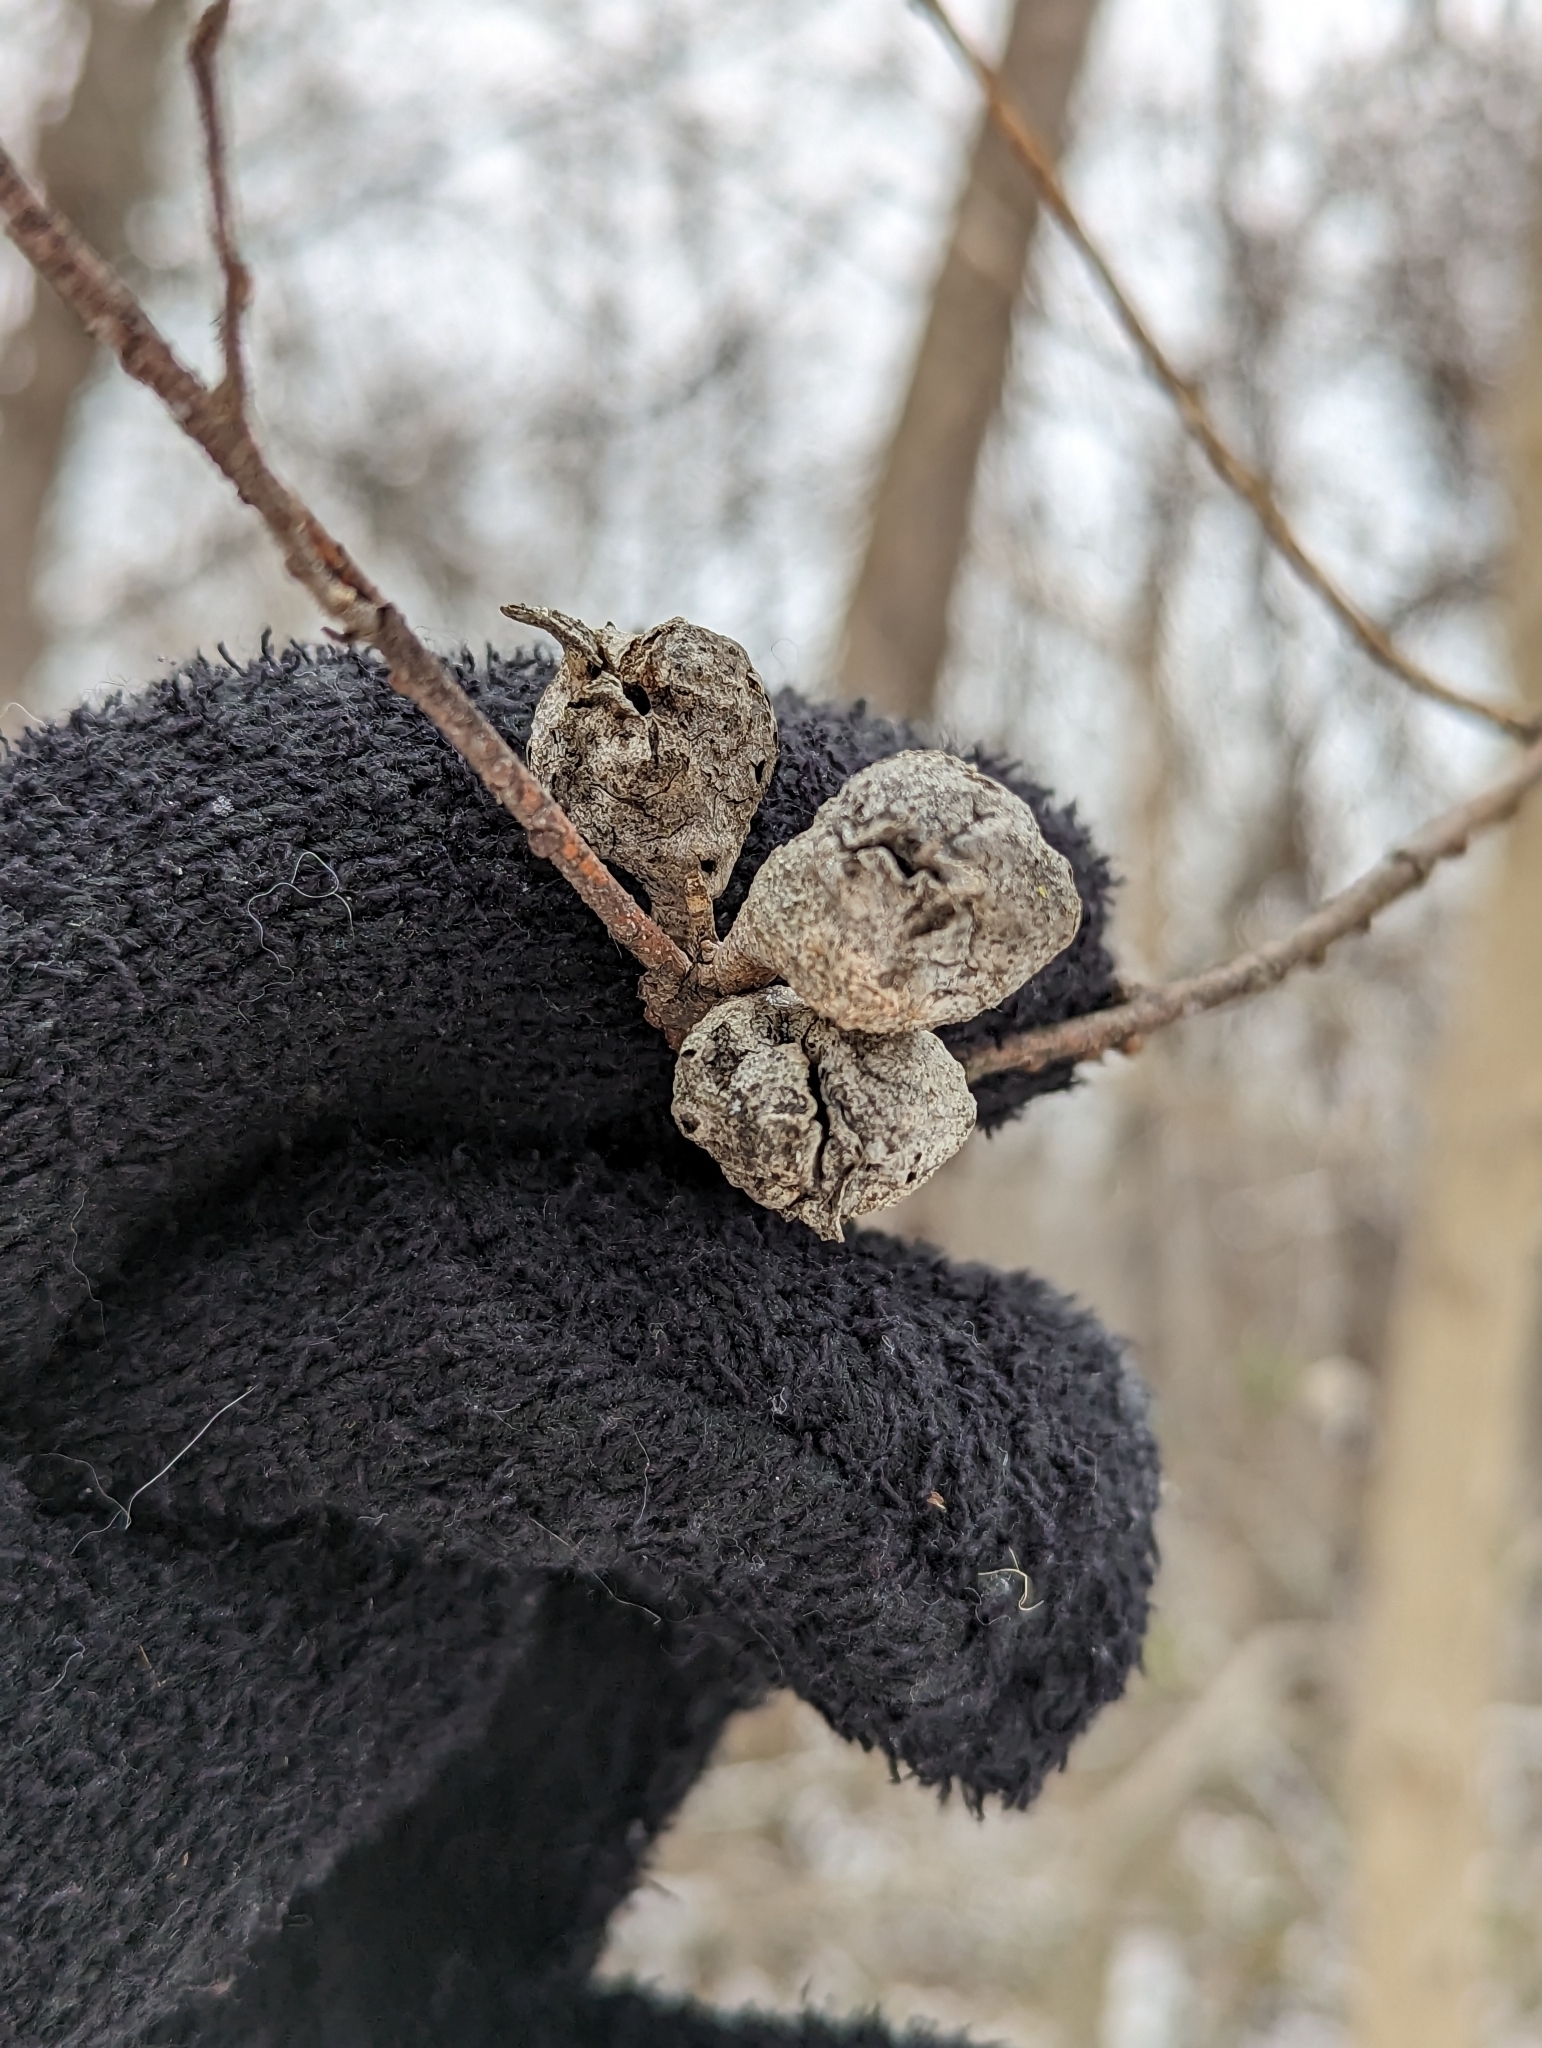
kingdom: Animalia
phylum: Arthropoda
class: Insecta
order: Hemiptera
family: Aphalaridae
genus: Pachypsylla
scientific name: Pachypsylla venusta
